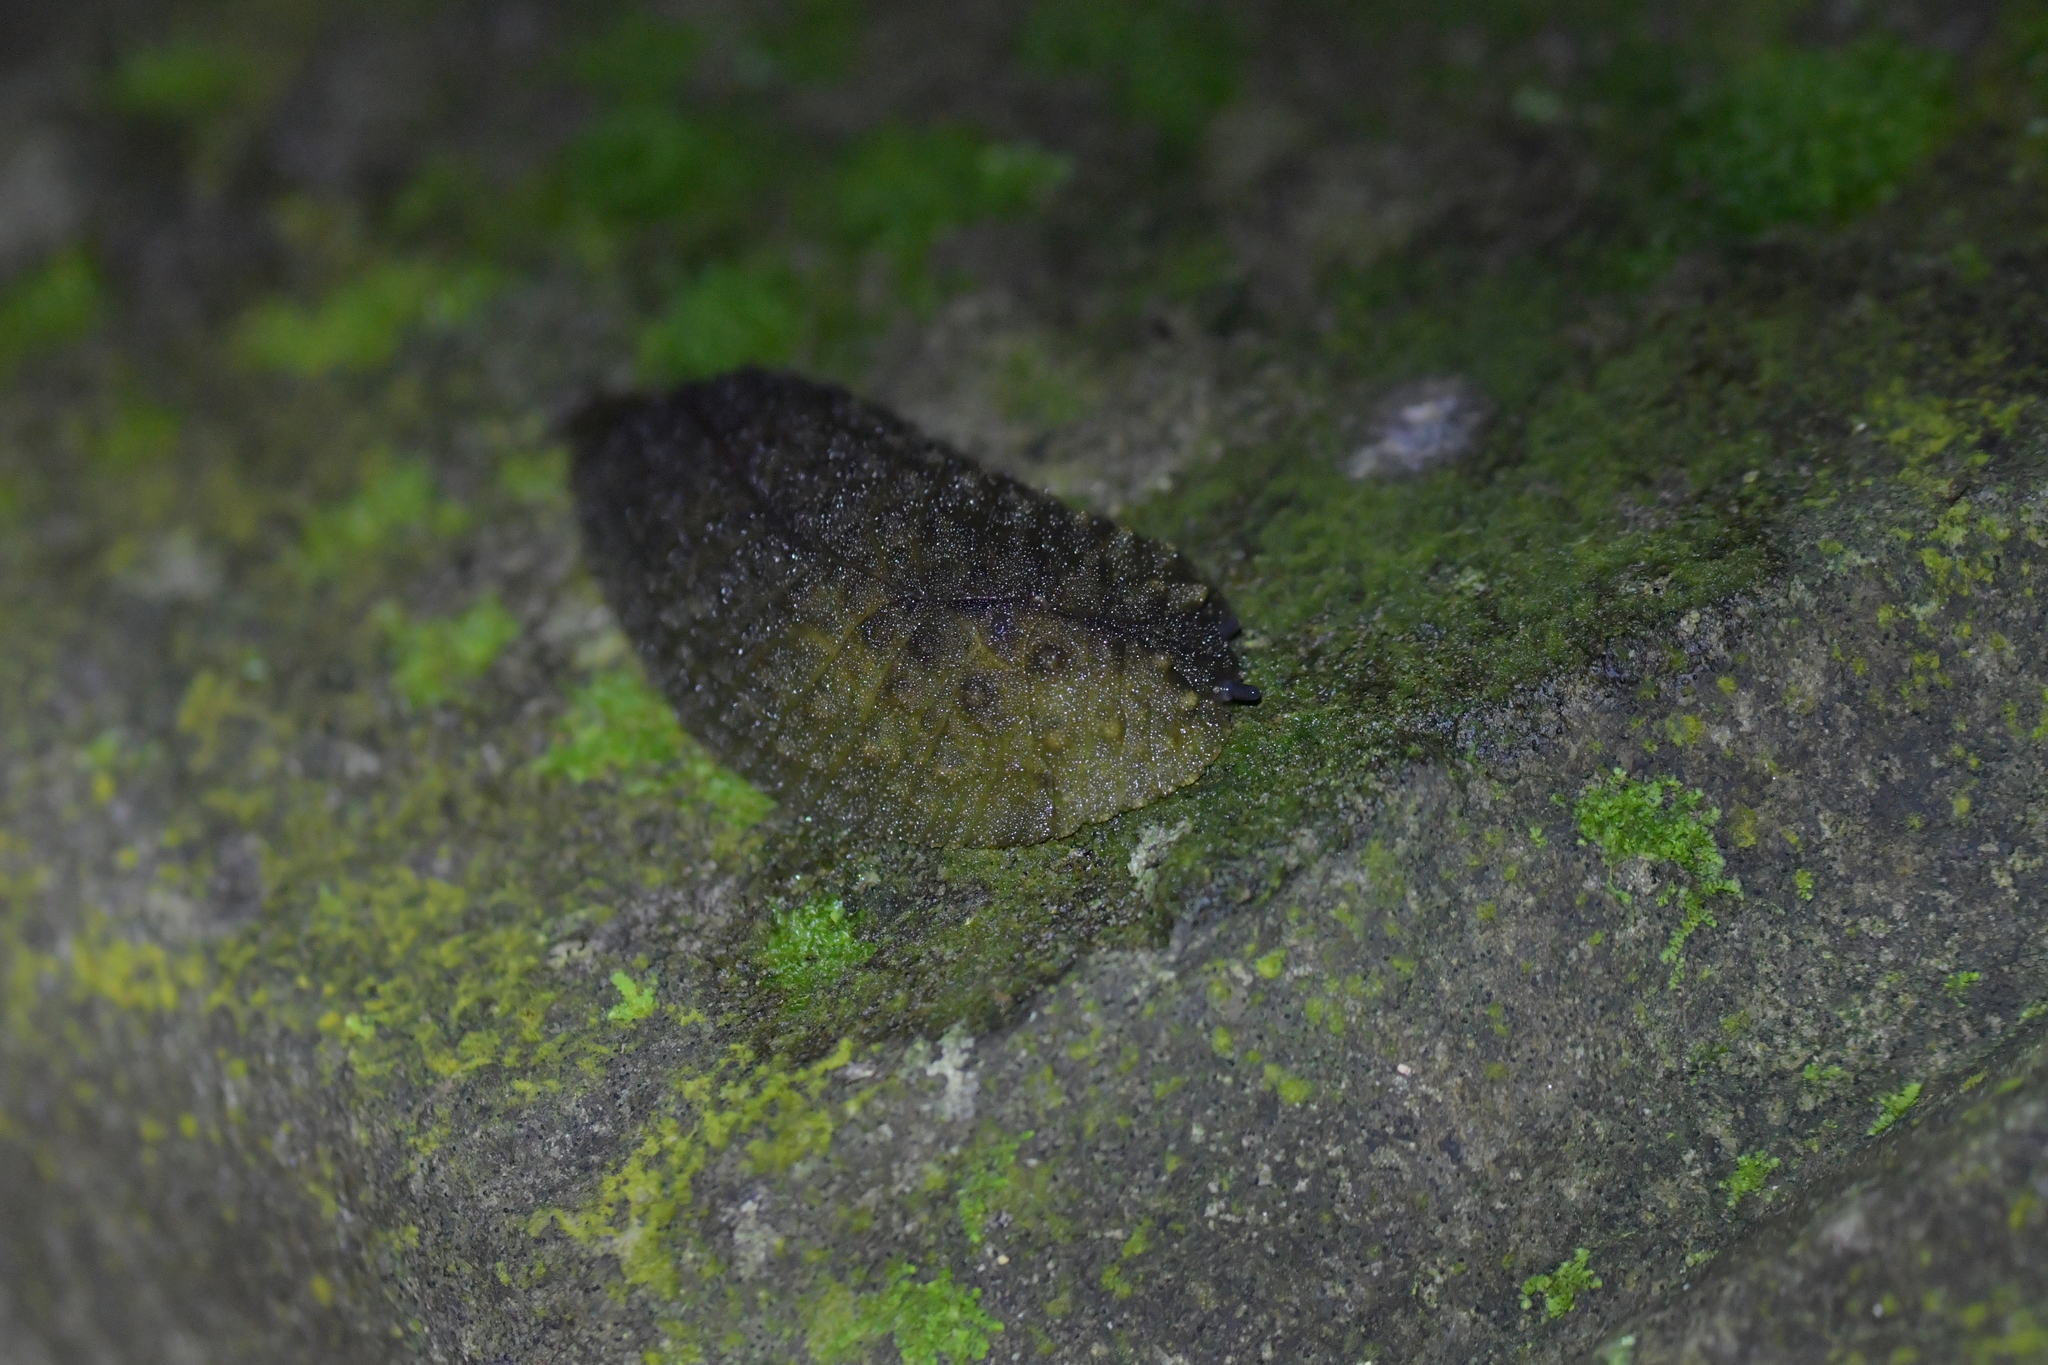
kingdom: Animalia
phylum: Mollusca
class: Gastropoda
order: Stylommatophora
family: Athoracophoridae
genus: Athoracophorus
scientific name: Athoracophorus papillatus
